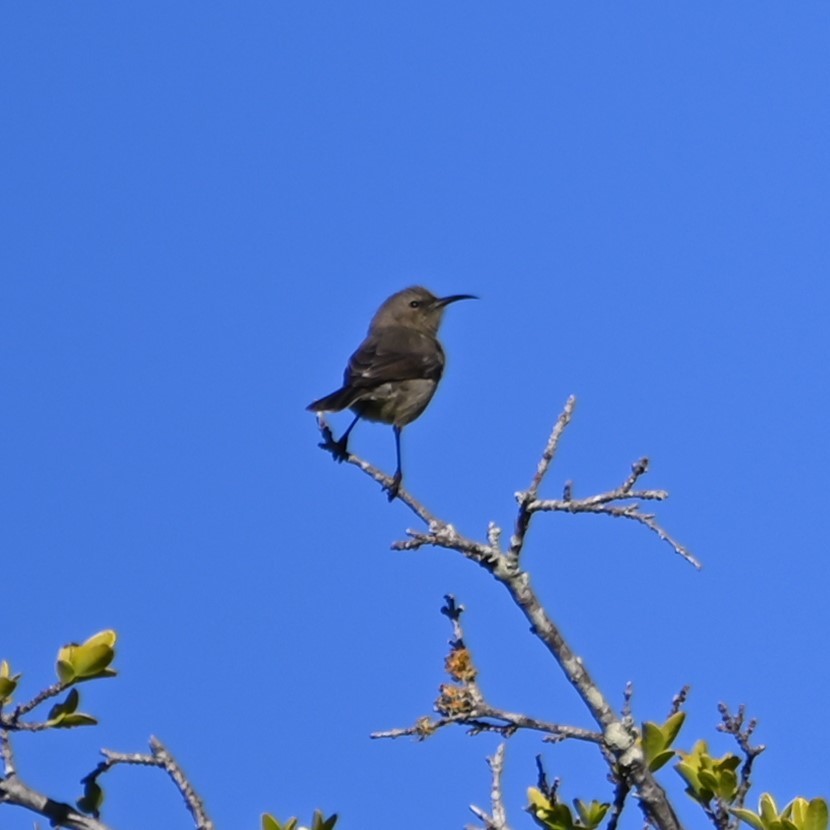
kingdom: Animalia
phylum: Chordata
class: Aves
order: Passeriformes
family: Nectariniidae
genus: Cinnyris
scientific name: Cinnyris chalybeus
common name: Southern double-collared sunbird
